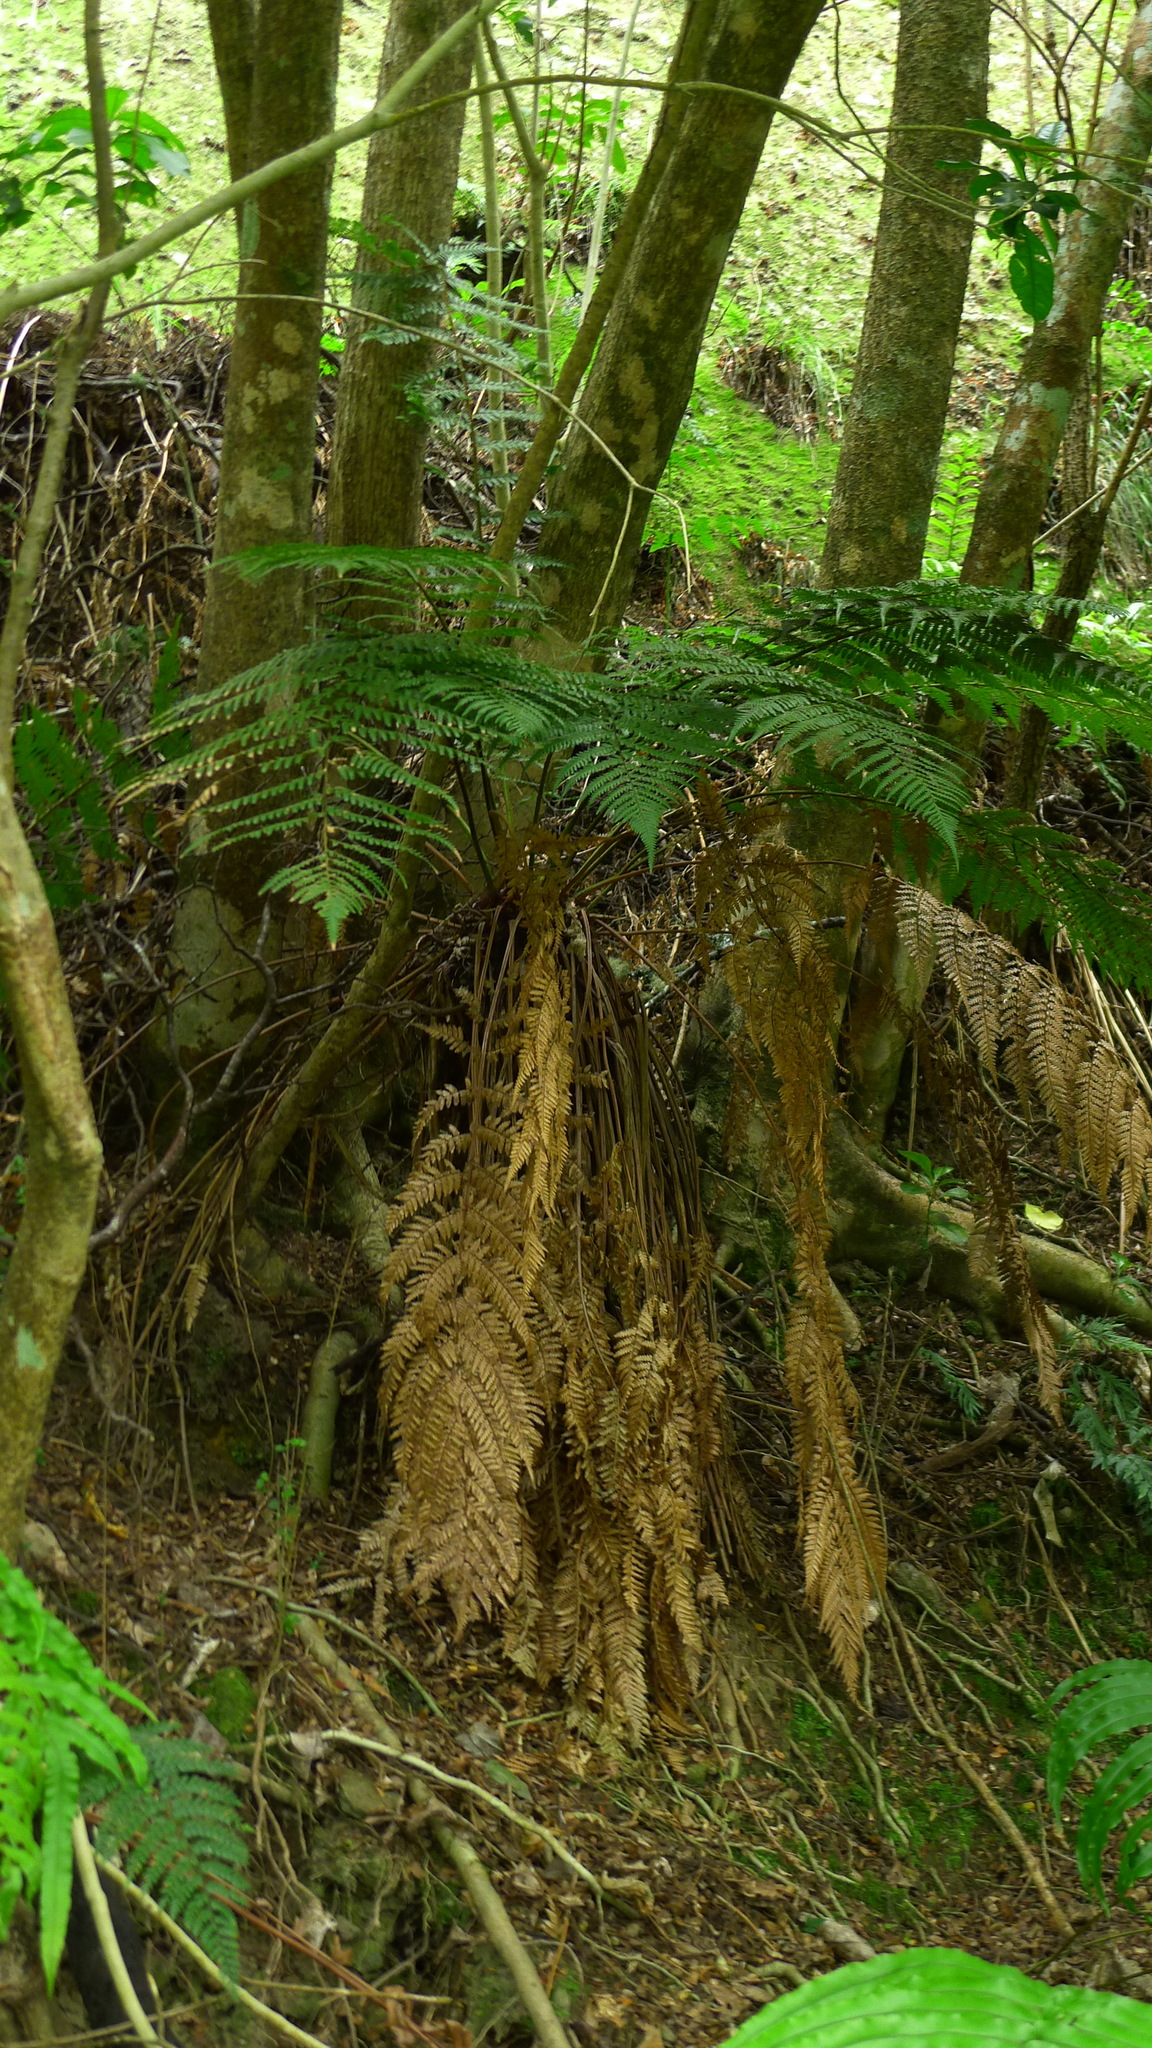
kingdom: Plantae
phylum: Tracheophyta
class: Polypodiopsida
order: Cyatheales
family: Dicksoniaceae
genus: Dicksonia
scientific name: Dicksonia fibrosa
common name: Golden tree fern
